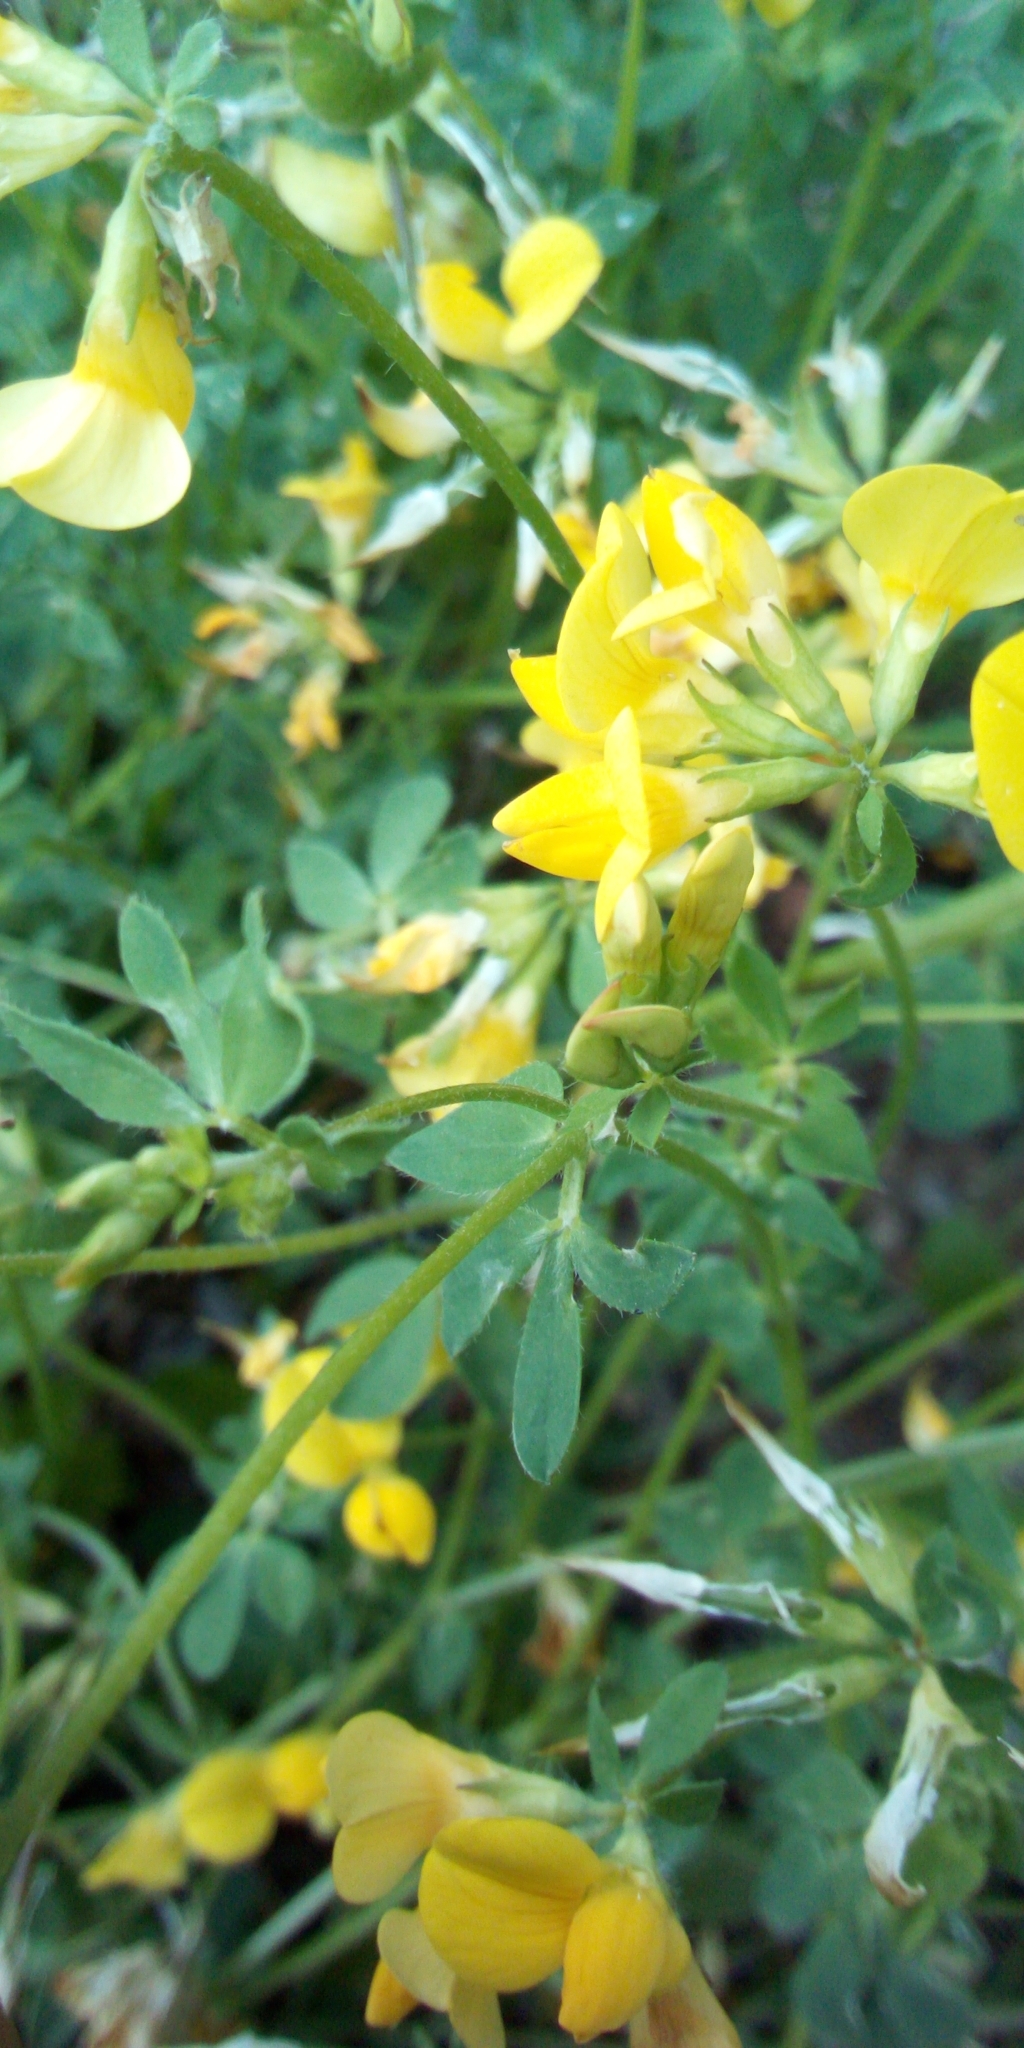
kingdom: Plantae
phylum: Tracheophyta
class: Magnoliopsida
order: Fabales
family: Fabaceae
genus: Lotus
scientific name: Lotus corniculatus
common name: Common bird's-foot-trefoil
